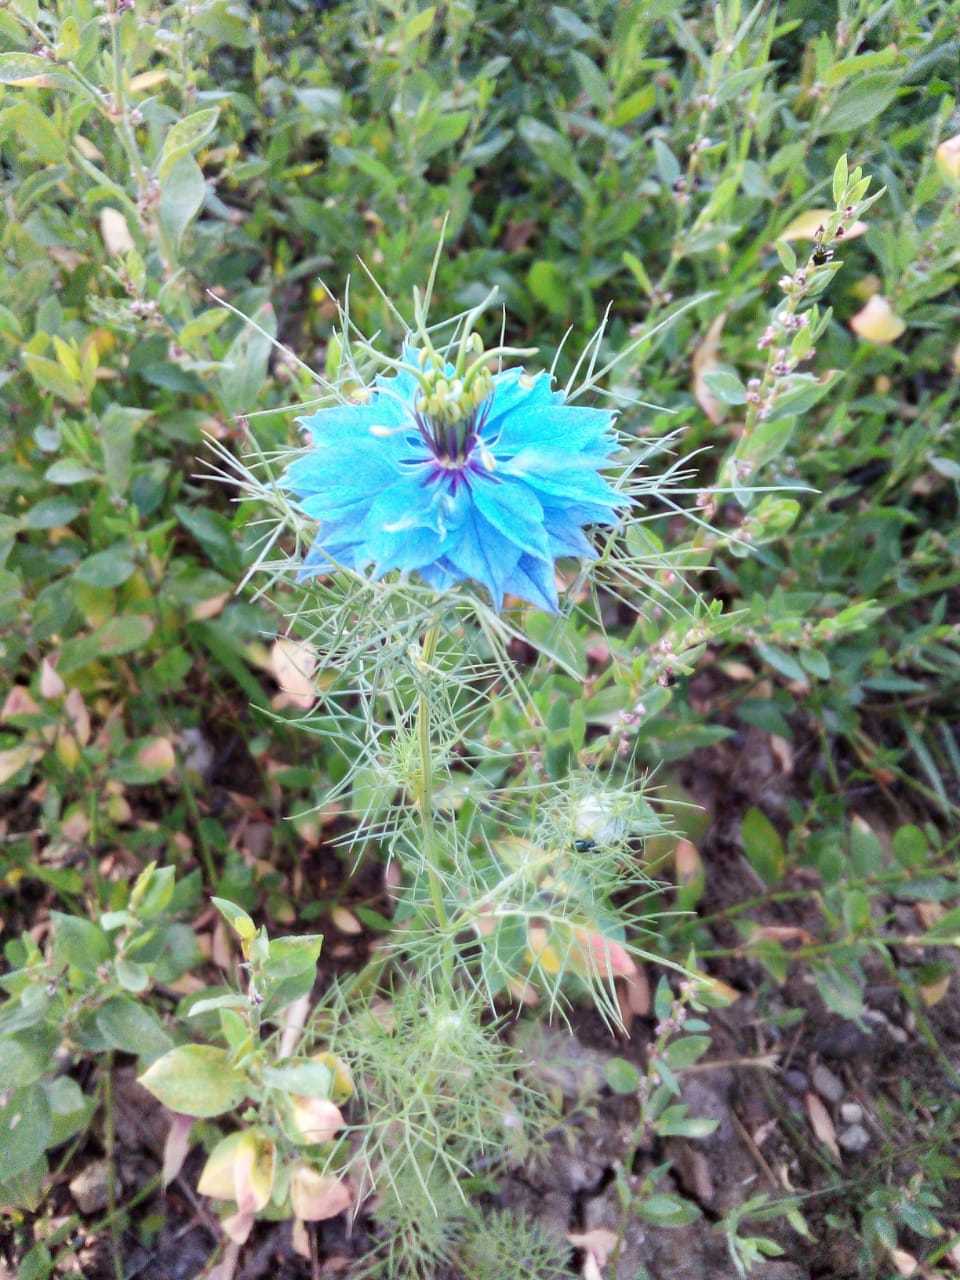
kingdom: Plantae
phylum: Tracheophyta
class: Magnoliopsida
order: Ranunculales
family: Ranunculaceae
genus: Nigella
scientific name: Nigella damascena
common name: Love-in-a-mist
